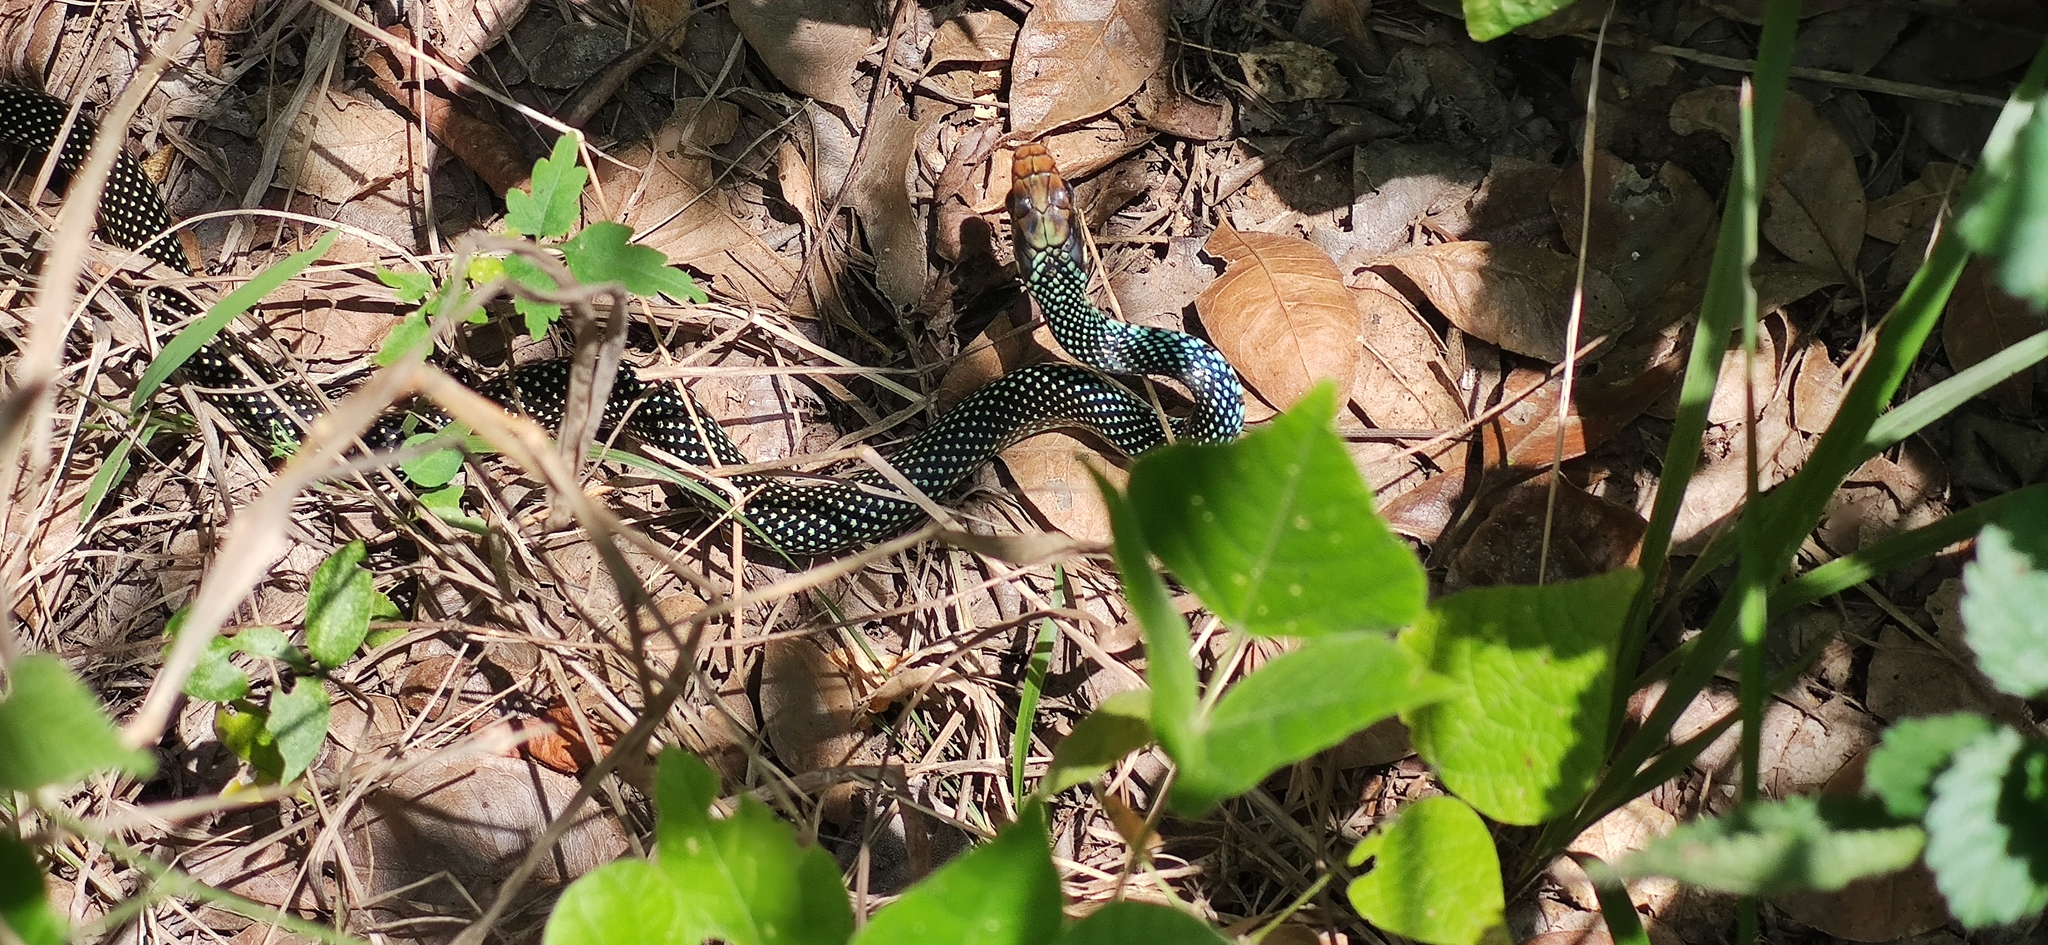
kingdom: Animalia
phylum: Chordata
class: Squamata
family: Colubridae
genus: Drymobius
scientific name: Drymobius margaritiferus
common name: Central american speckled racer
